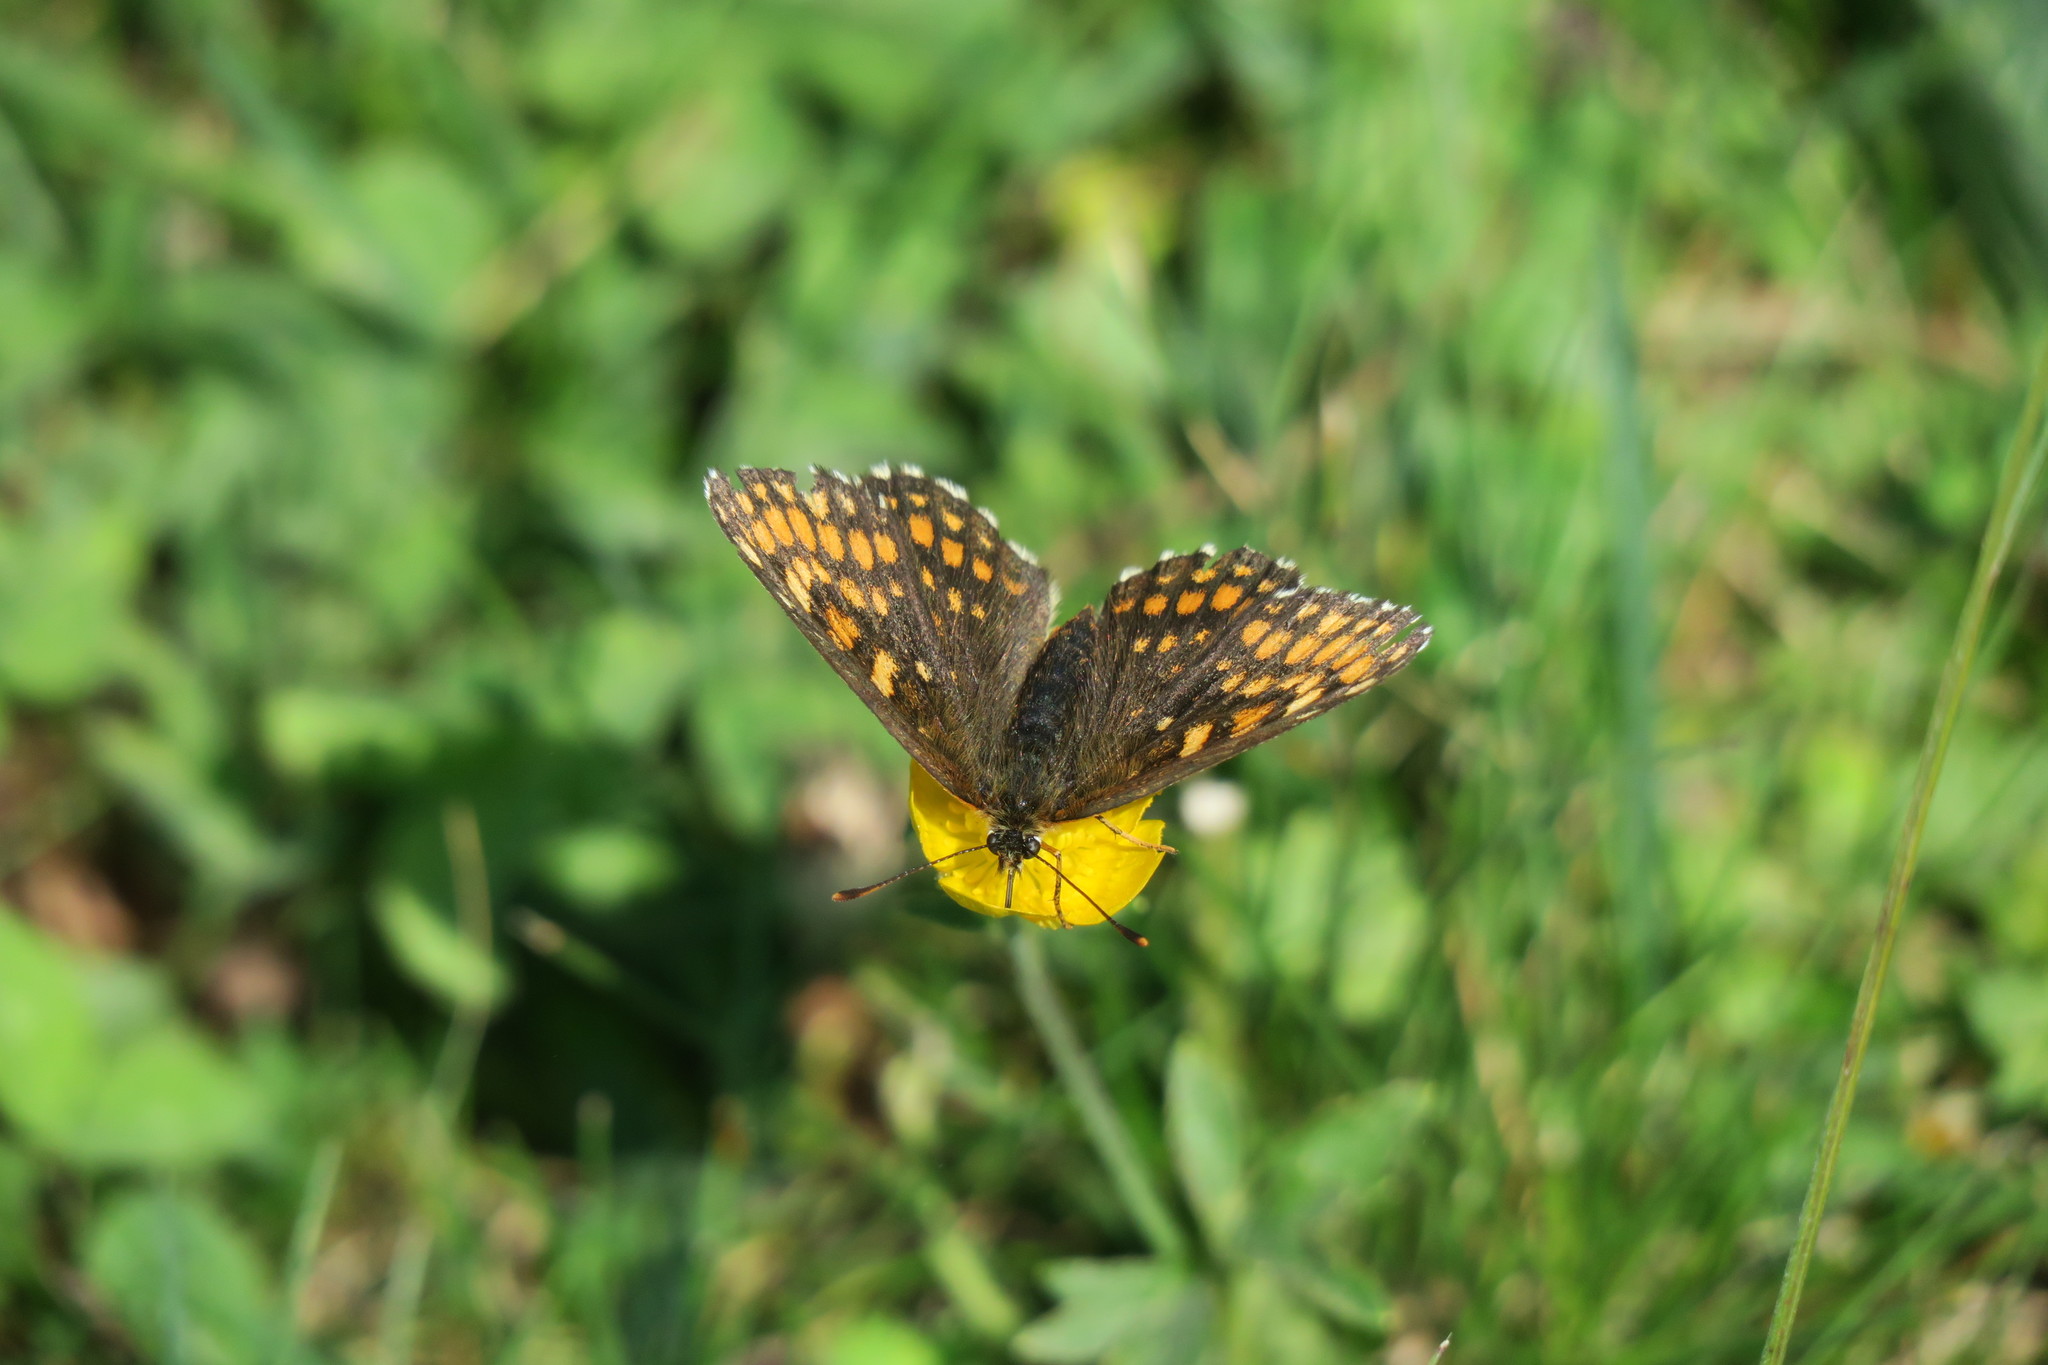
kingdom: Animalia
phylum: Arthropoda
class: Insecta
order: Lepidoptera
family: Nymphalidae
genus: Melitaea
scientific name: Melitaea athalia
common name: Heath fritillary
